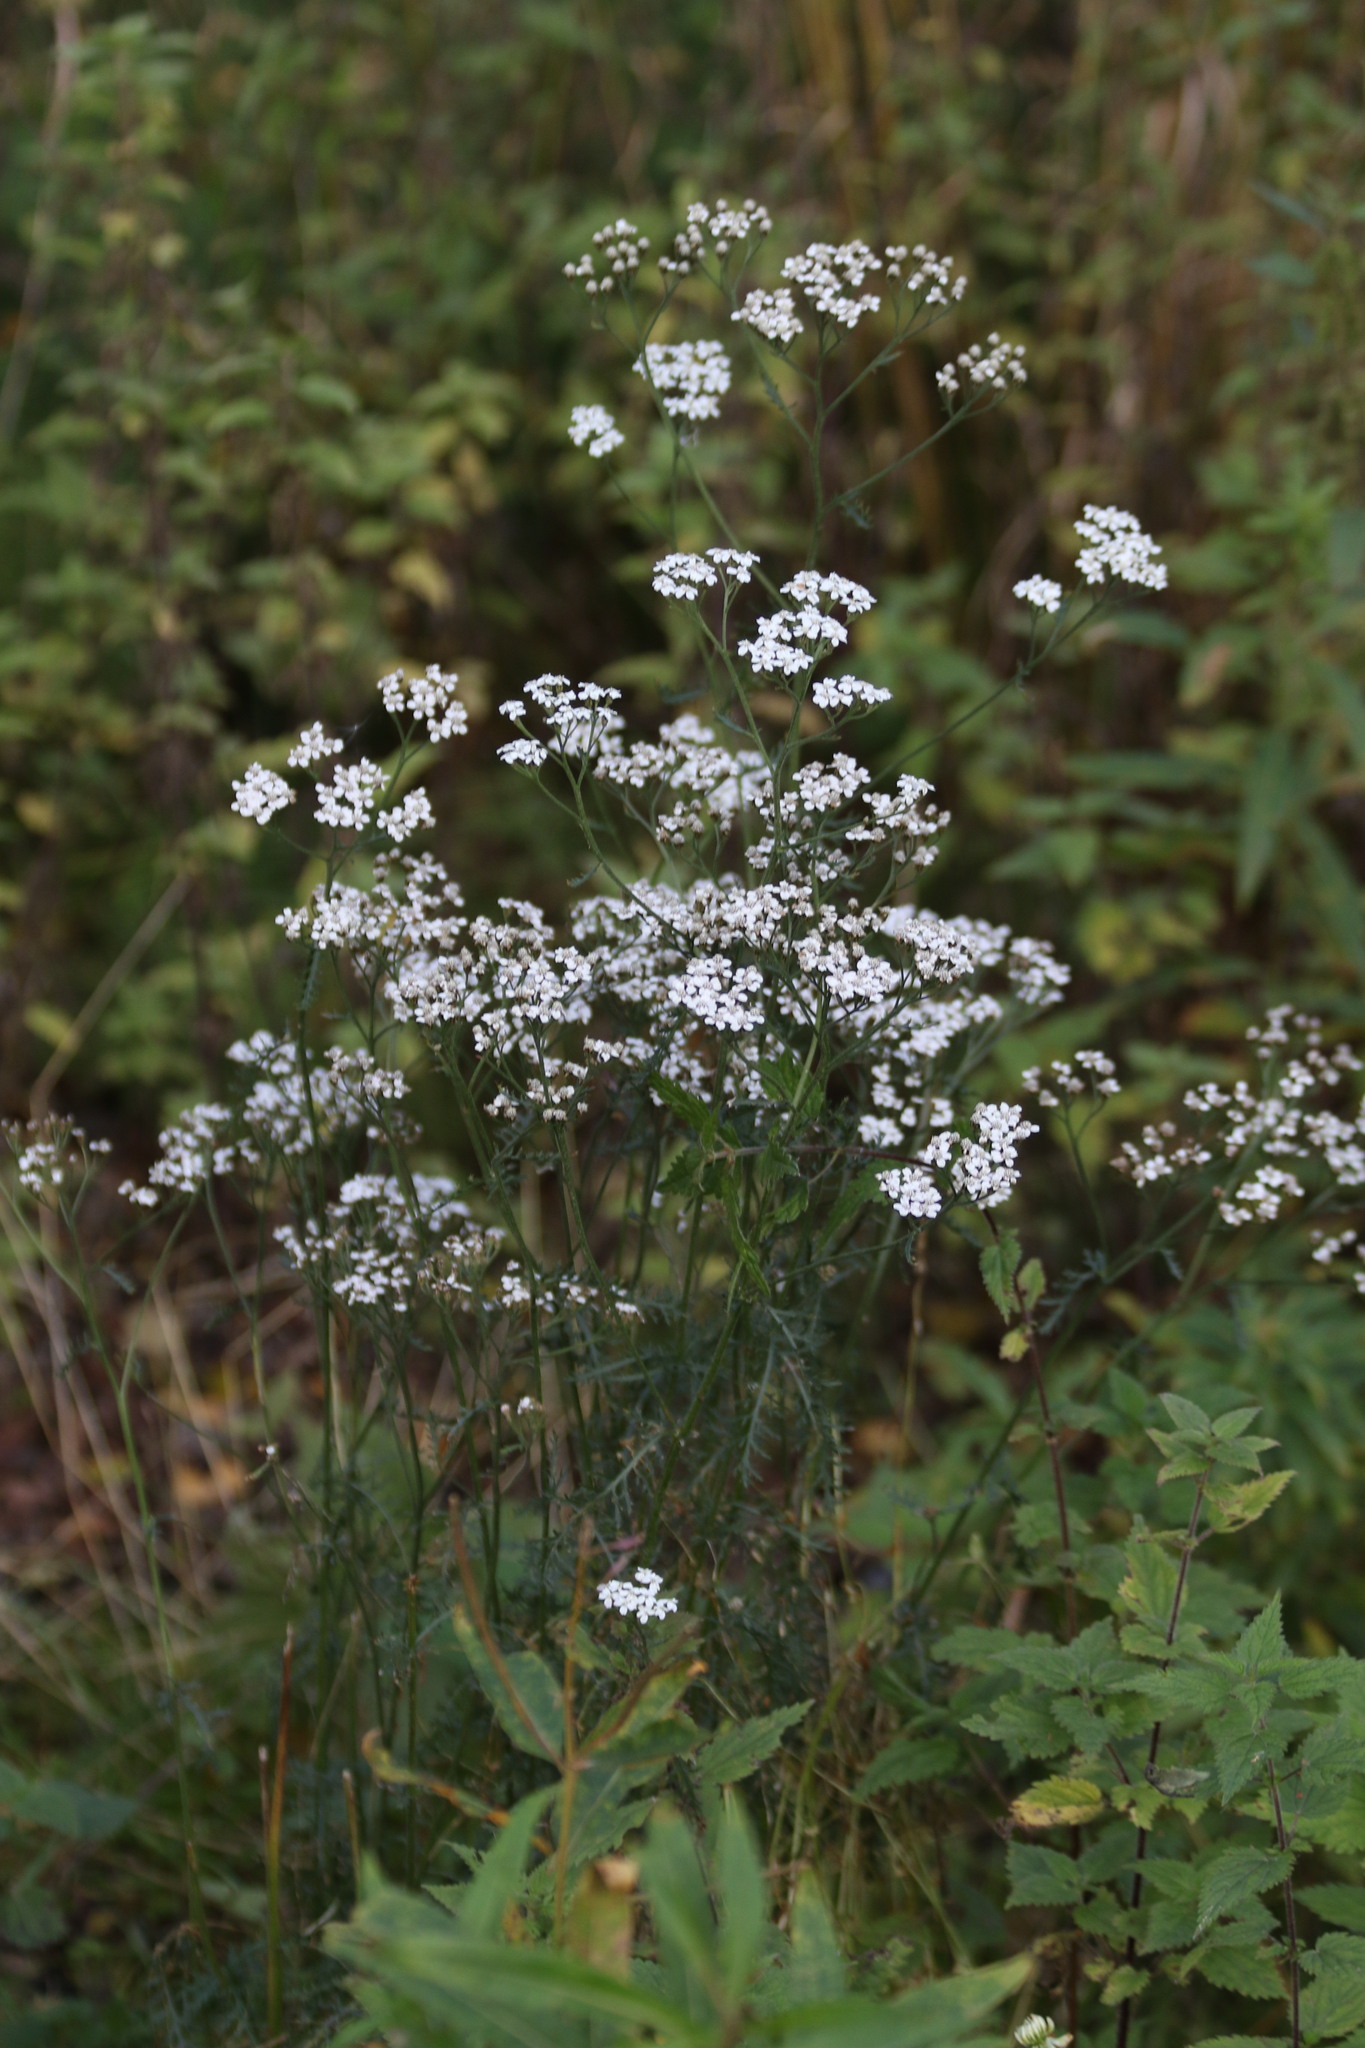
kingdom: Plantae
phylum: Tracheophyta
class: Magnoliopsida
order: Asterales
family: Asteraceae
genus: Achillea
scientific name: Achillea millefolium
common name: Yarrow
